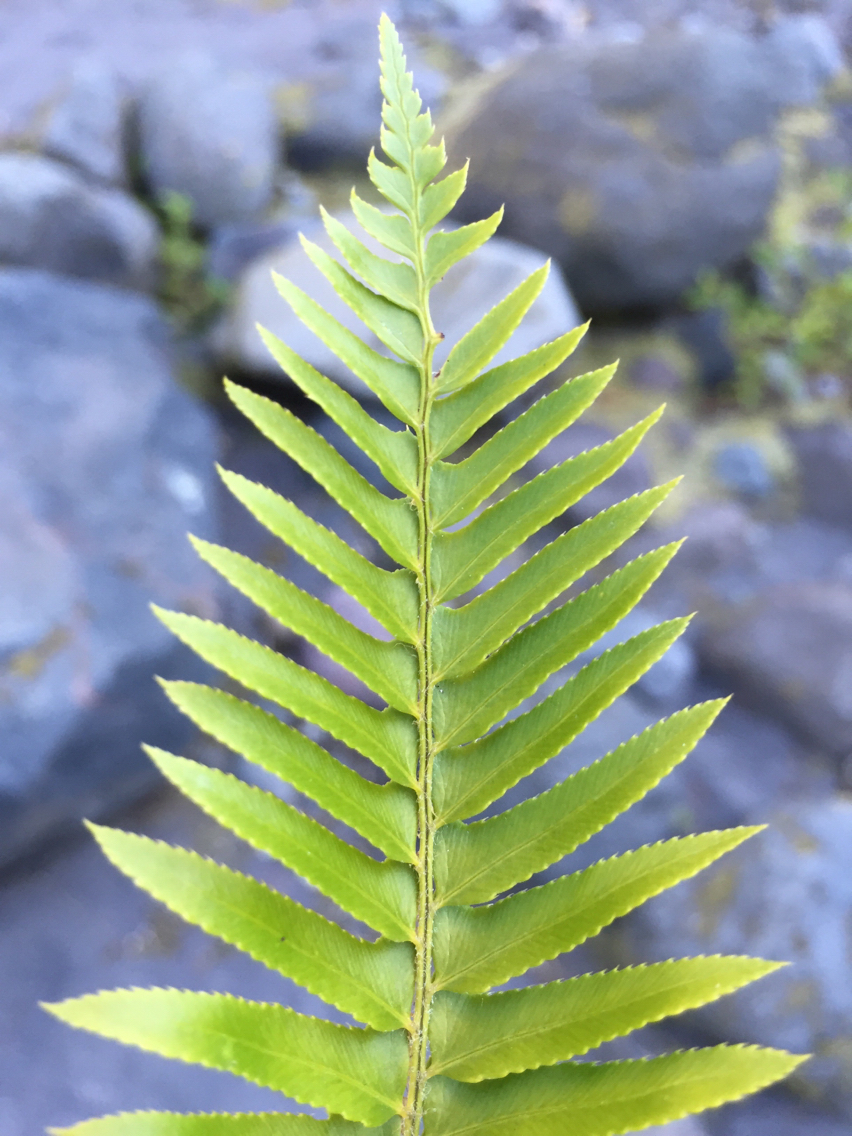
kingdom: Plantae
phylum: Tracheophyta
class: Polypodiopsida
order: Polypodiales
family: Dryopteridaceae
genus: Polystichum
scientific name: Polystichum munitum
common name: Western sword-fern
